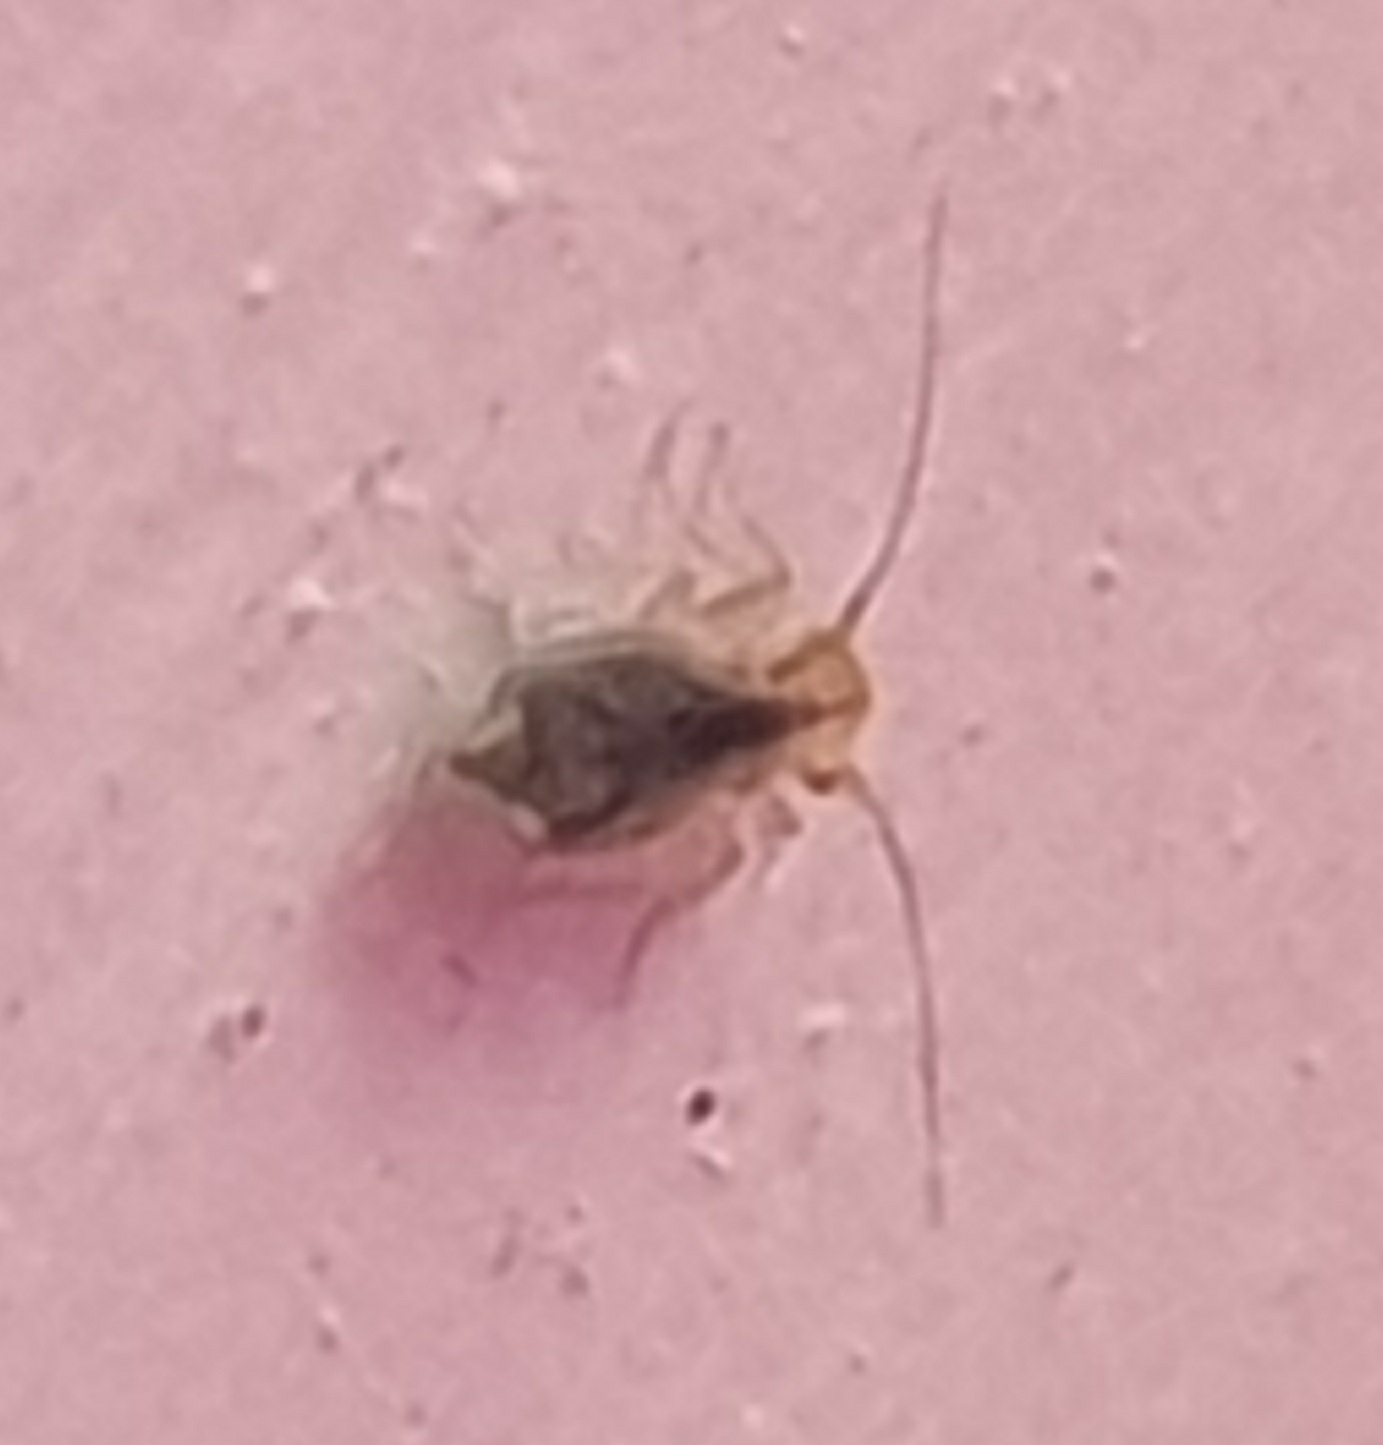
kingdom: Animalia
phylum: Arthropoda
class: Insecta
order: Psocodea
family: Trogiidae
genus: Trogium
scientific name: Trogium pulsatorium
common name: Granary book louse
